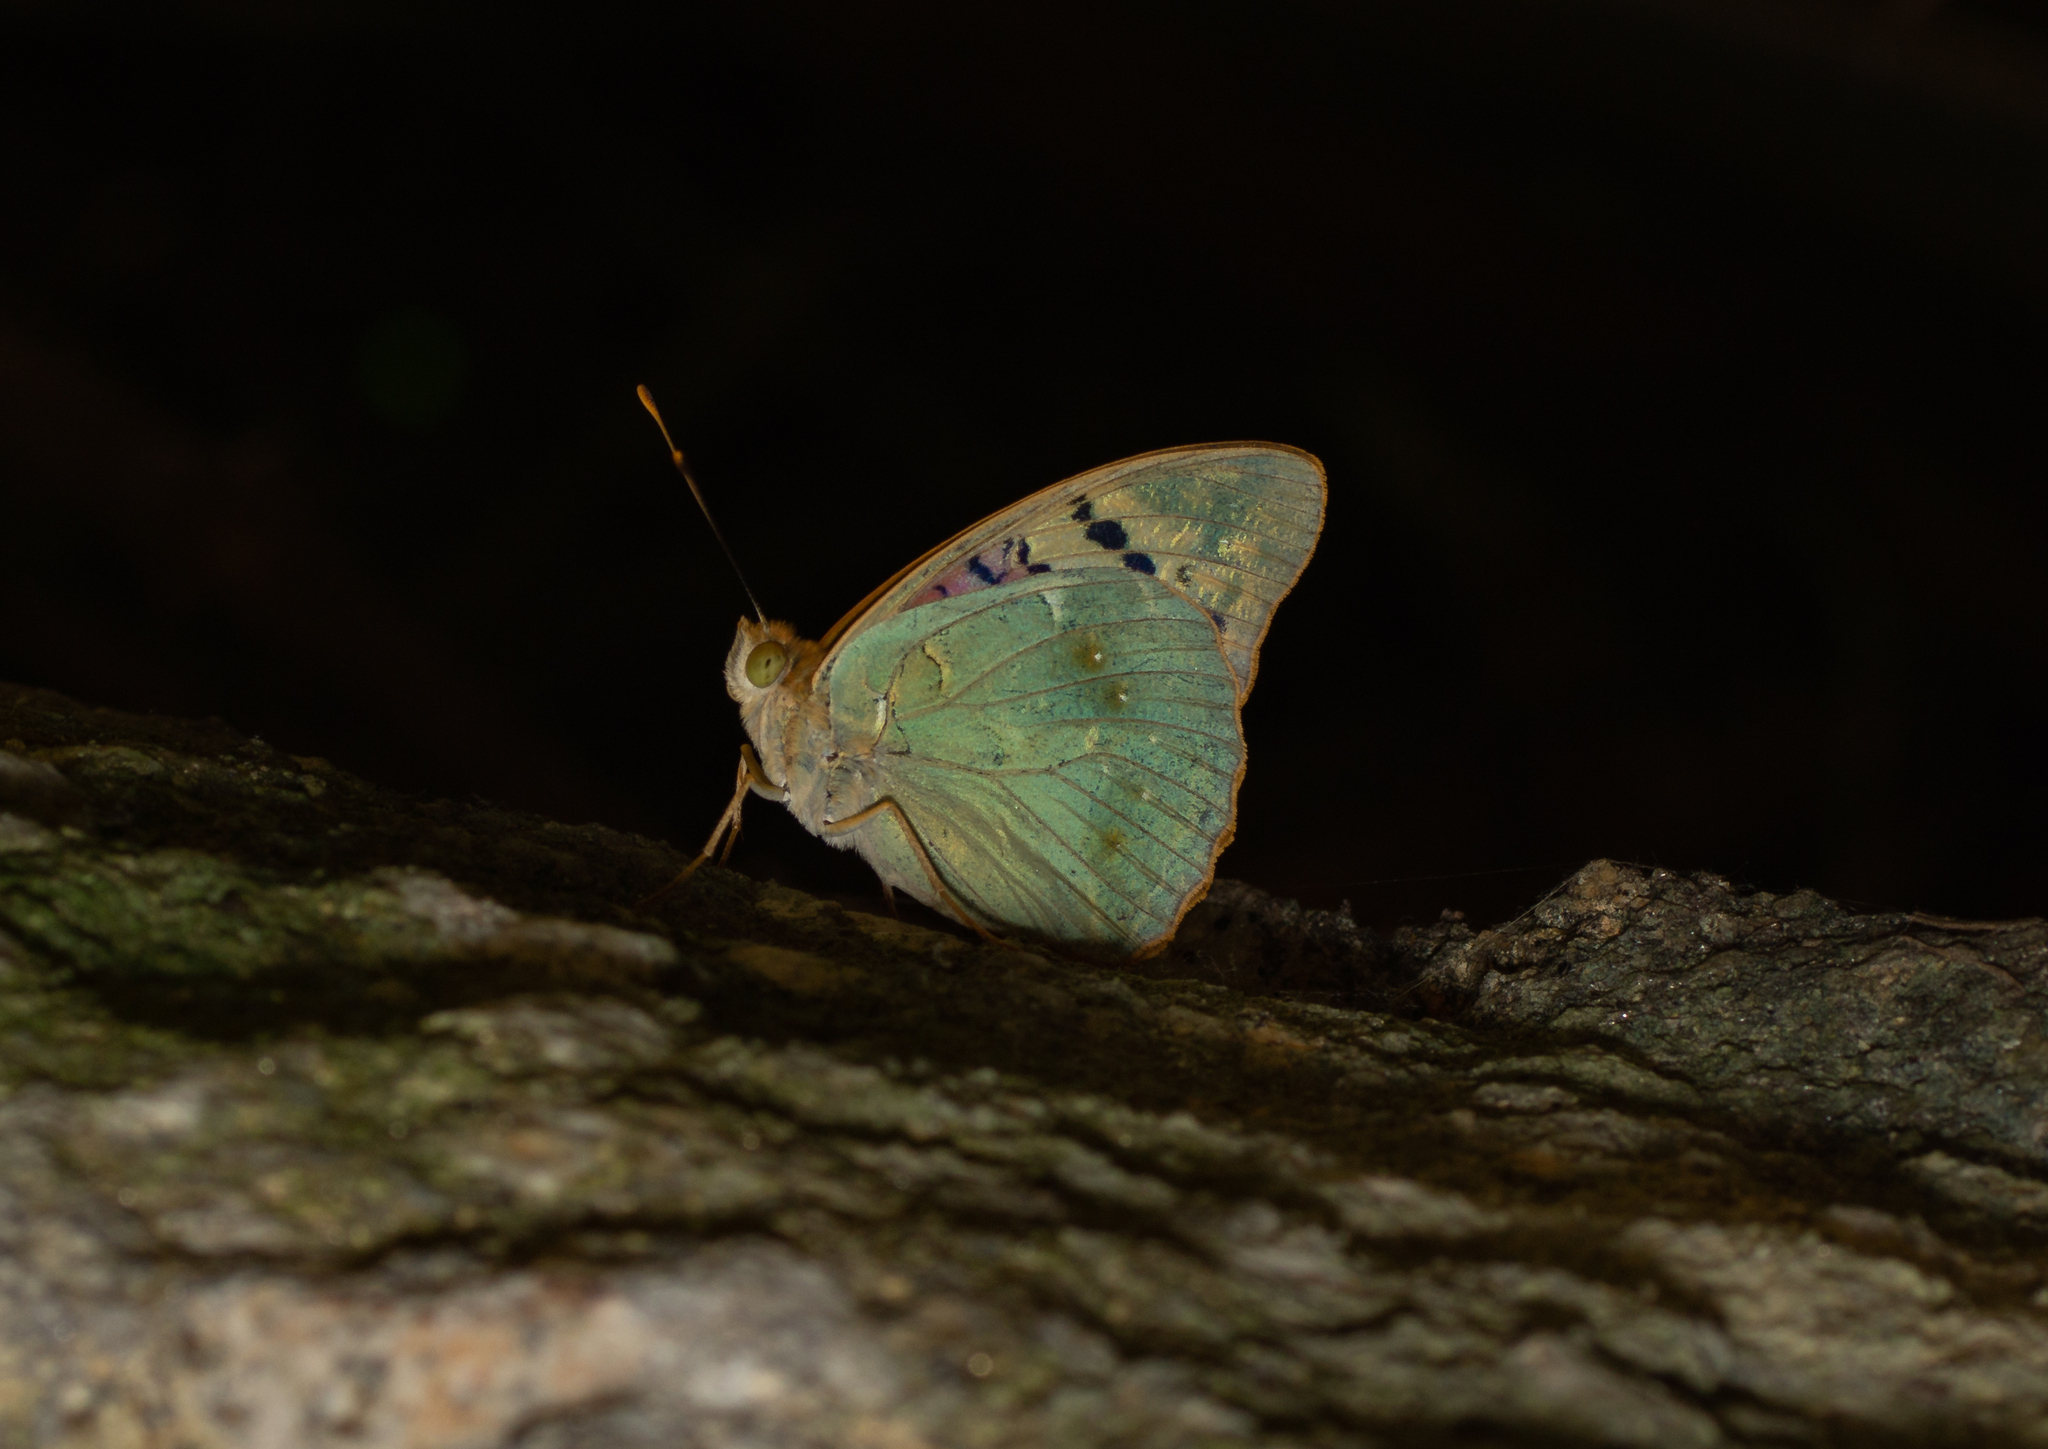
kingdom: Animalia
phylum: Arthropoda
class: Insecta
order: Lepidoptera
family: Nymphalidae
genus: Damora
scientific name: Damora pandora
